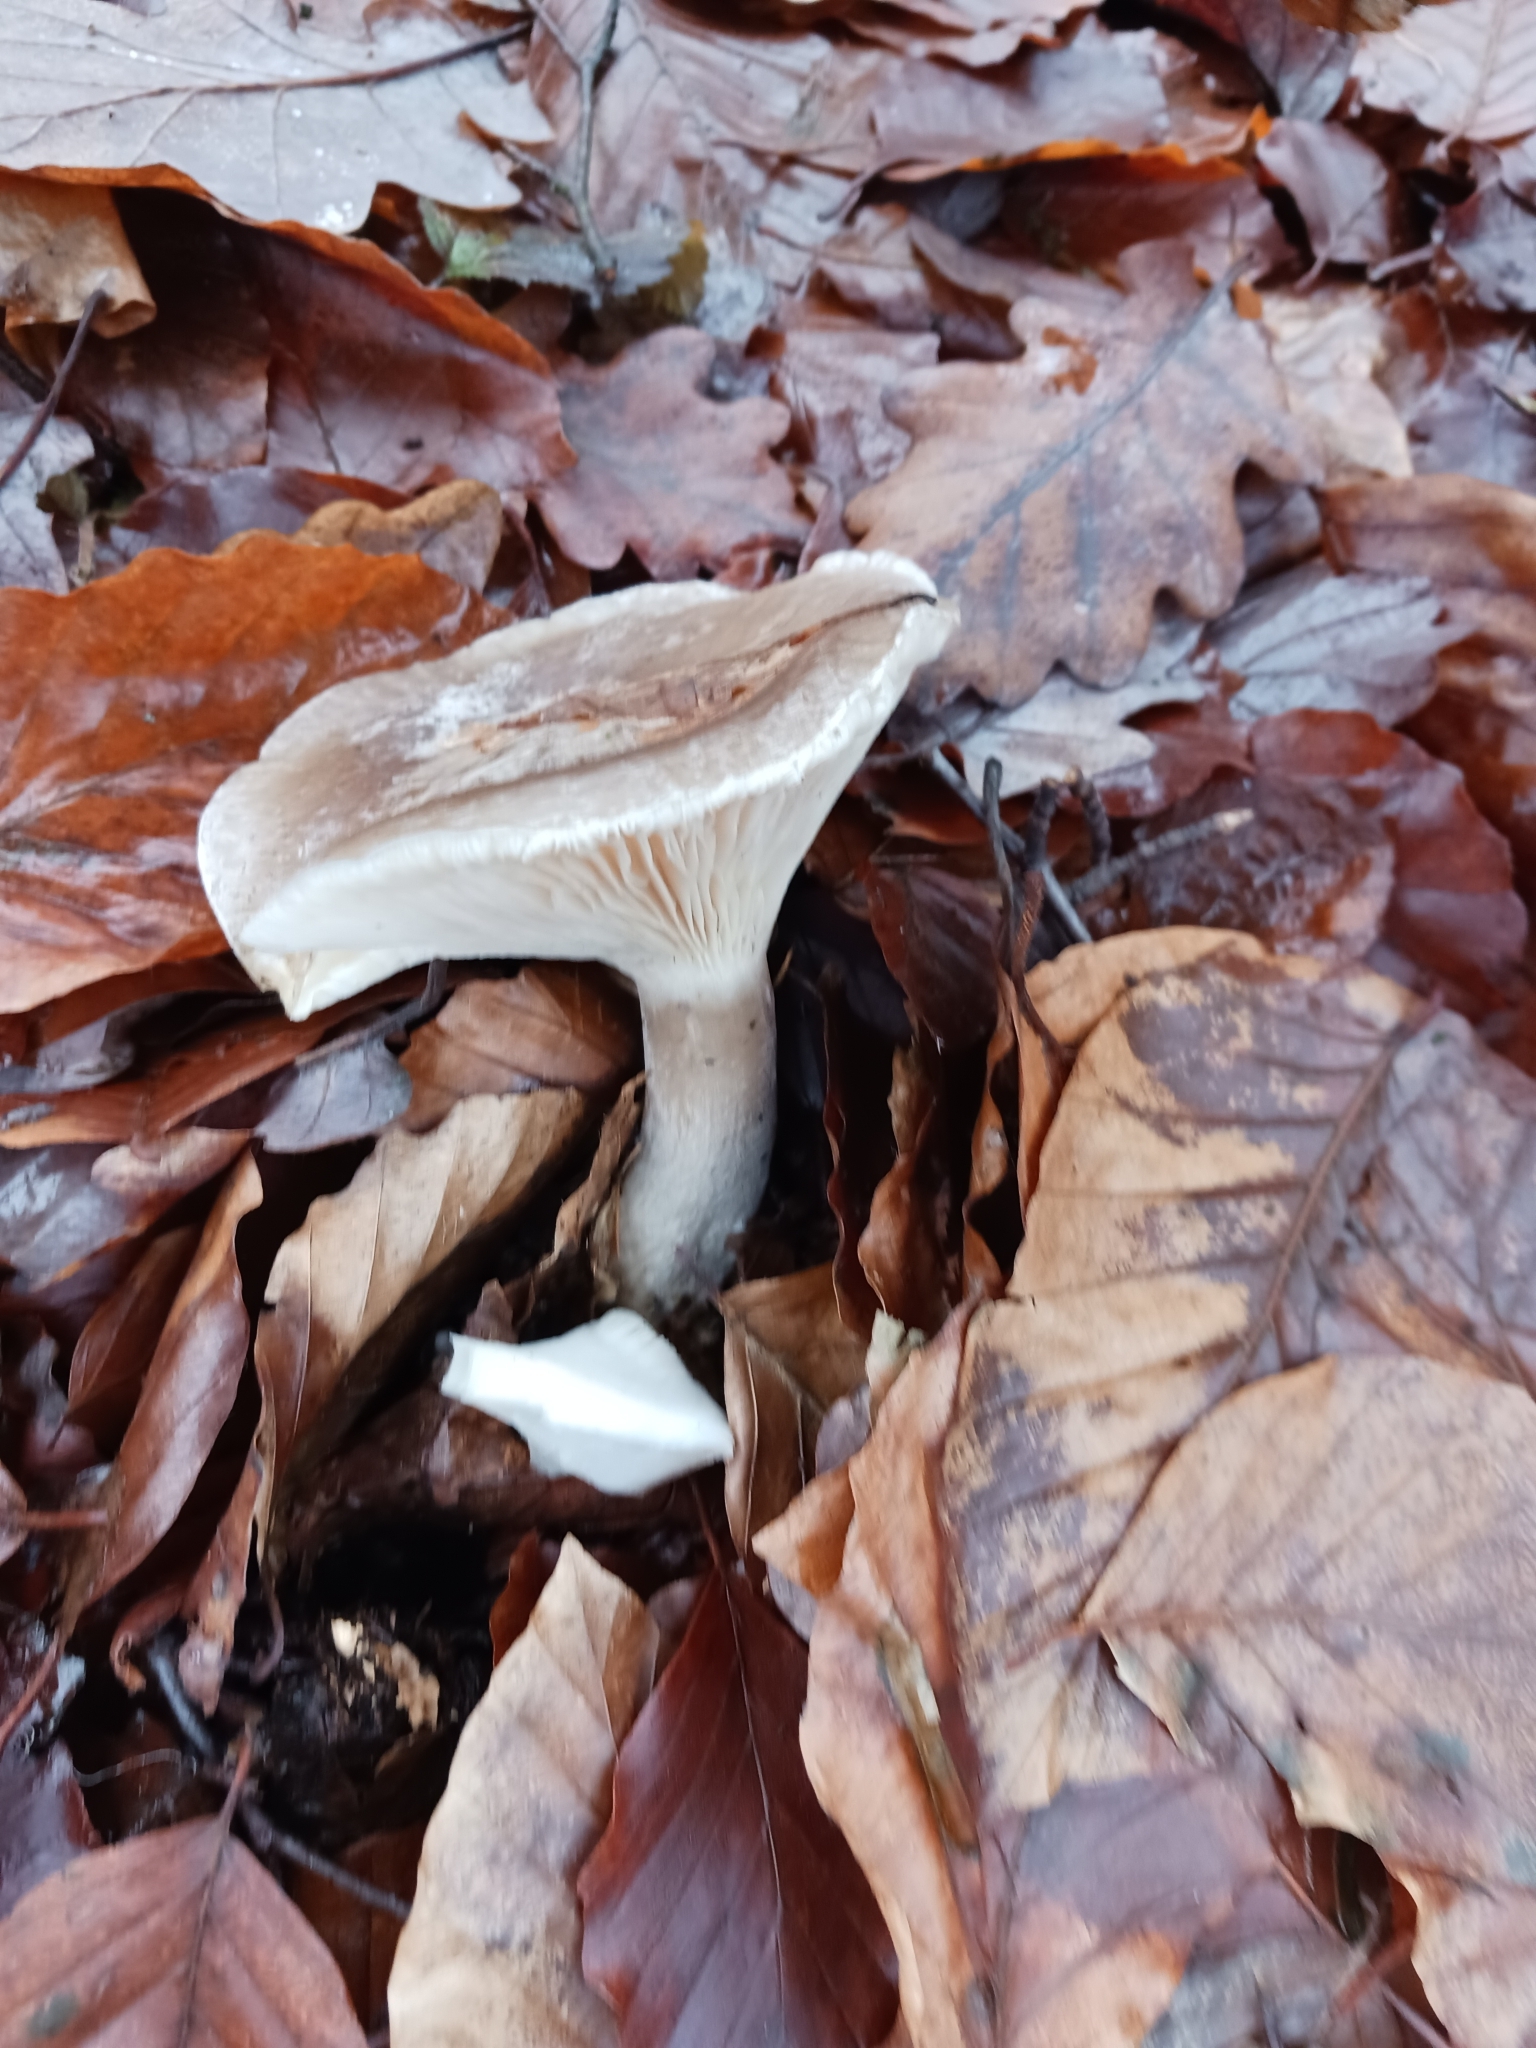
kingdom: Fungi
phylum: Basidiomycota
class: Agaricomycetes
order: Agaricales
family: Tricholomataceae
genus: Clitocybe
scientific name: Clitocybe nebularis
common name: Clouded agaric
